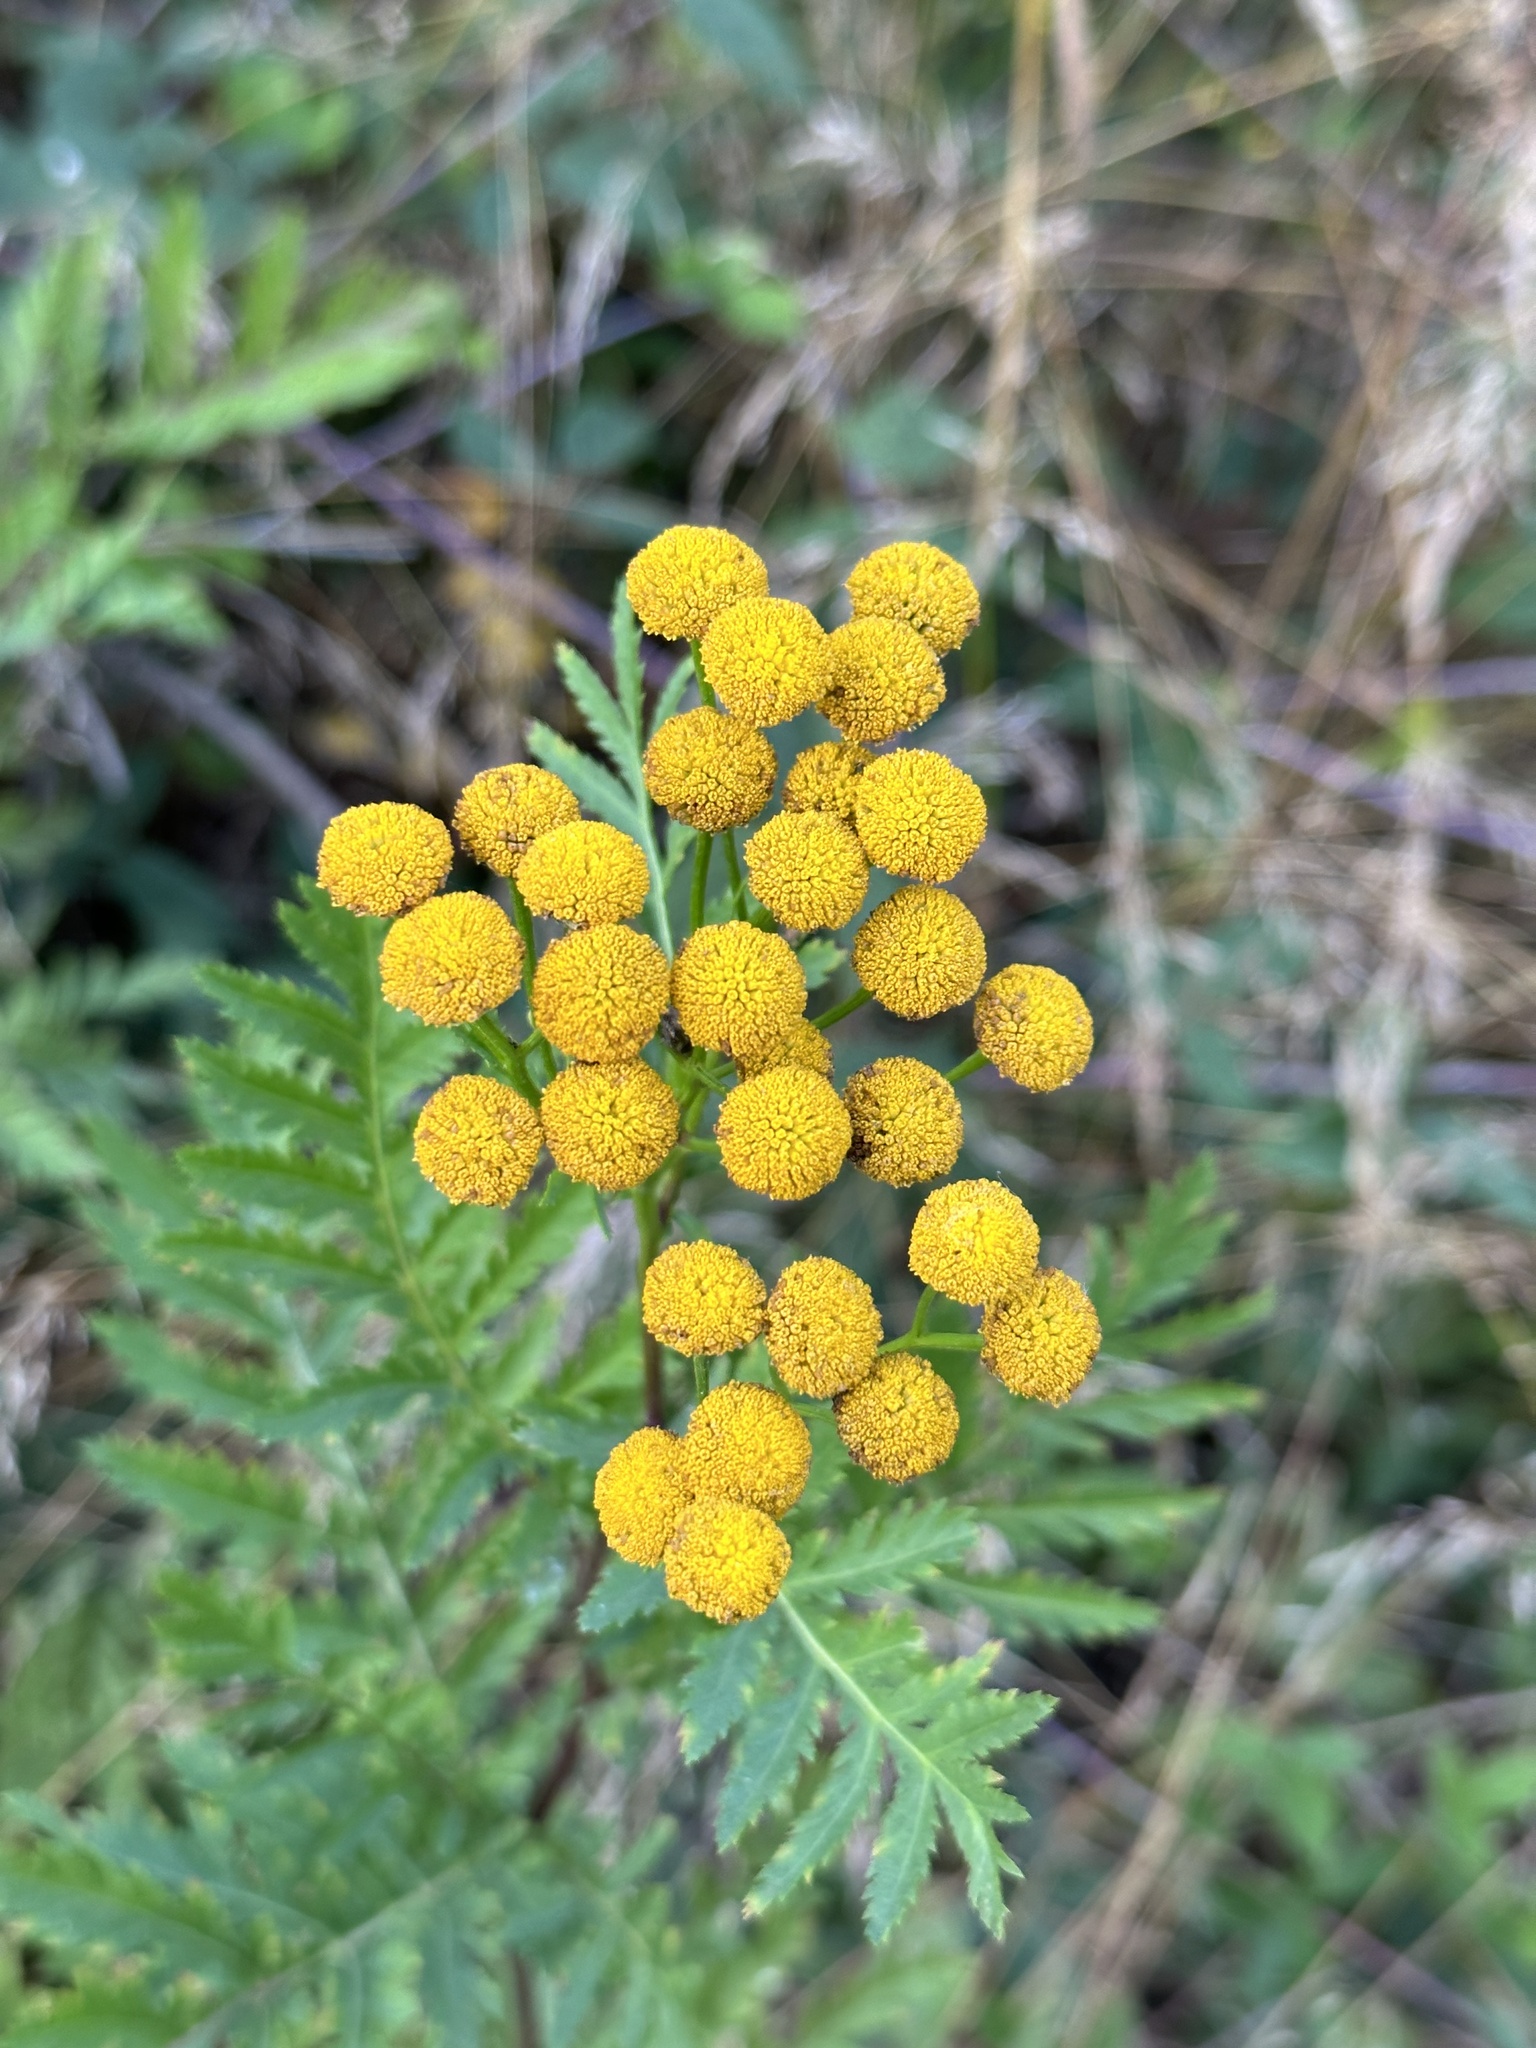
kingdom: Plantae
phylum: Tracheophyta
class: Magnoliopsida
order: Asterales
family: Asteraceae
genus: Tanacetum
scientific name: Tanacetum vulgare
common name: Common tansy
